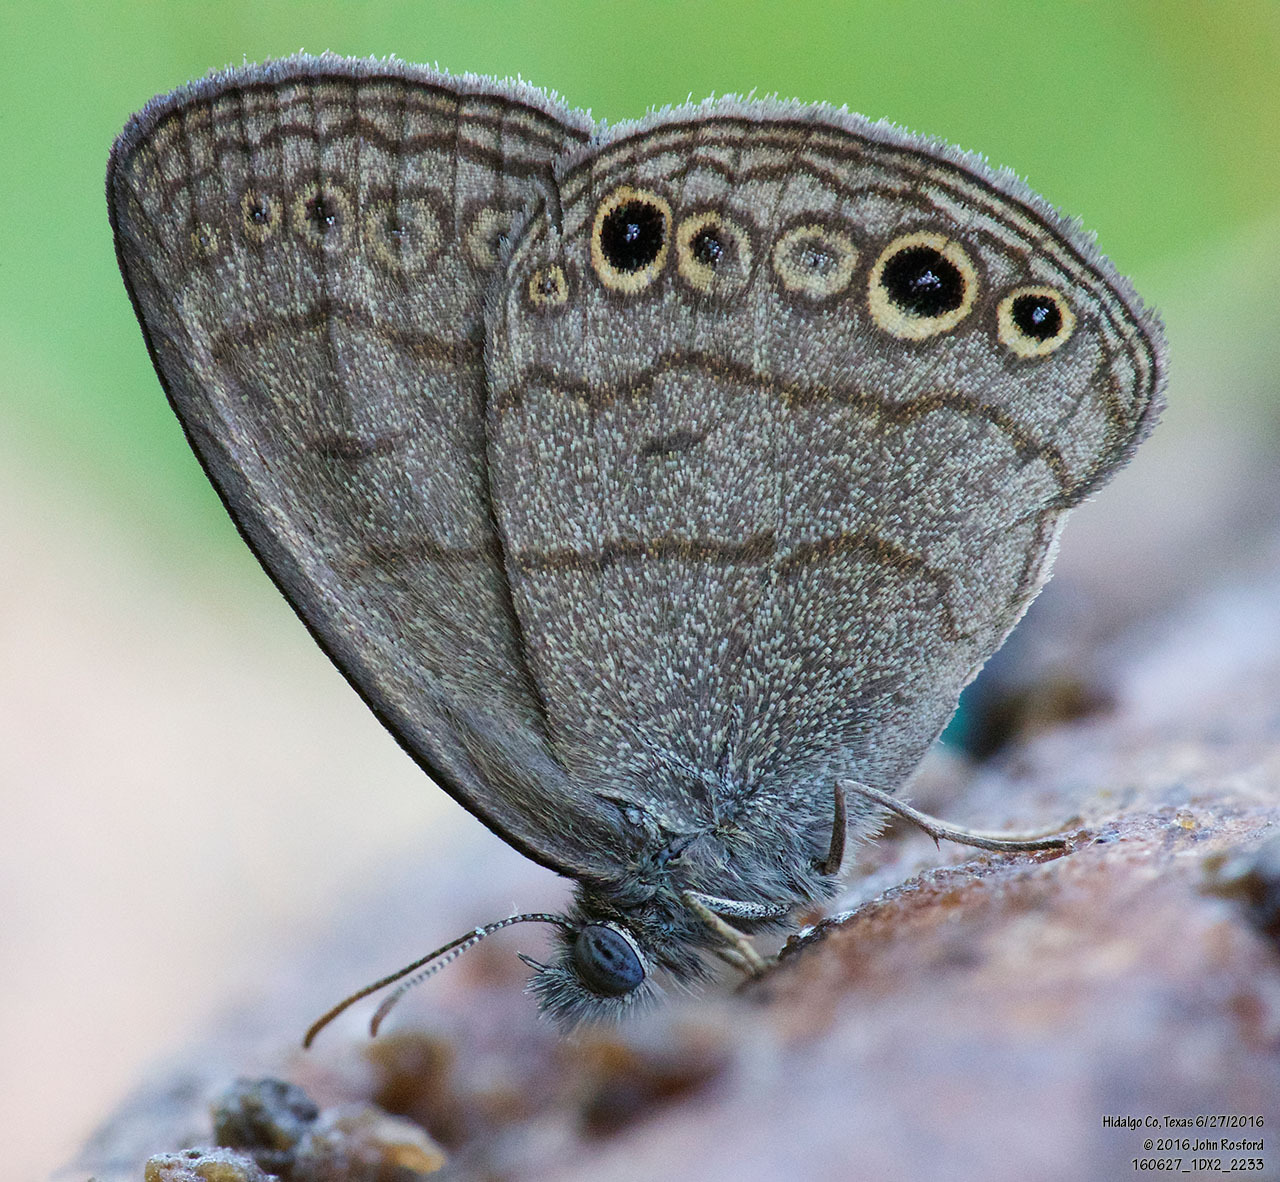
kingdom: Animalia
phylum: Arthropoda
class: Insecta
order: Lepidoptera
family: Nymphalidae
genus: Hermeuptychia
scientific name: Hermeuptychia hermybius
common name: South texas satyr
